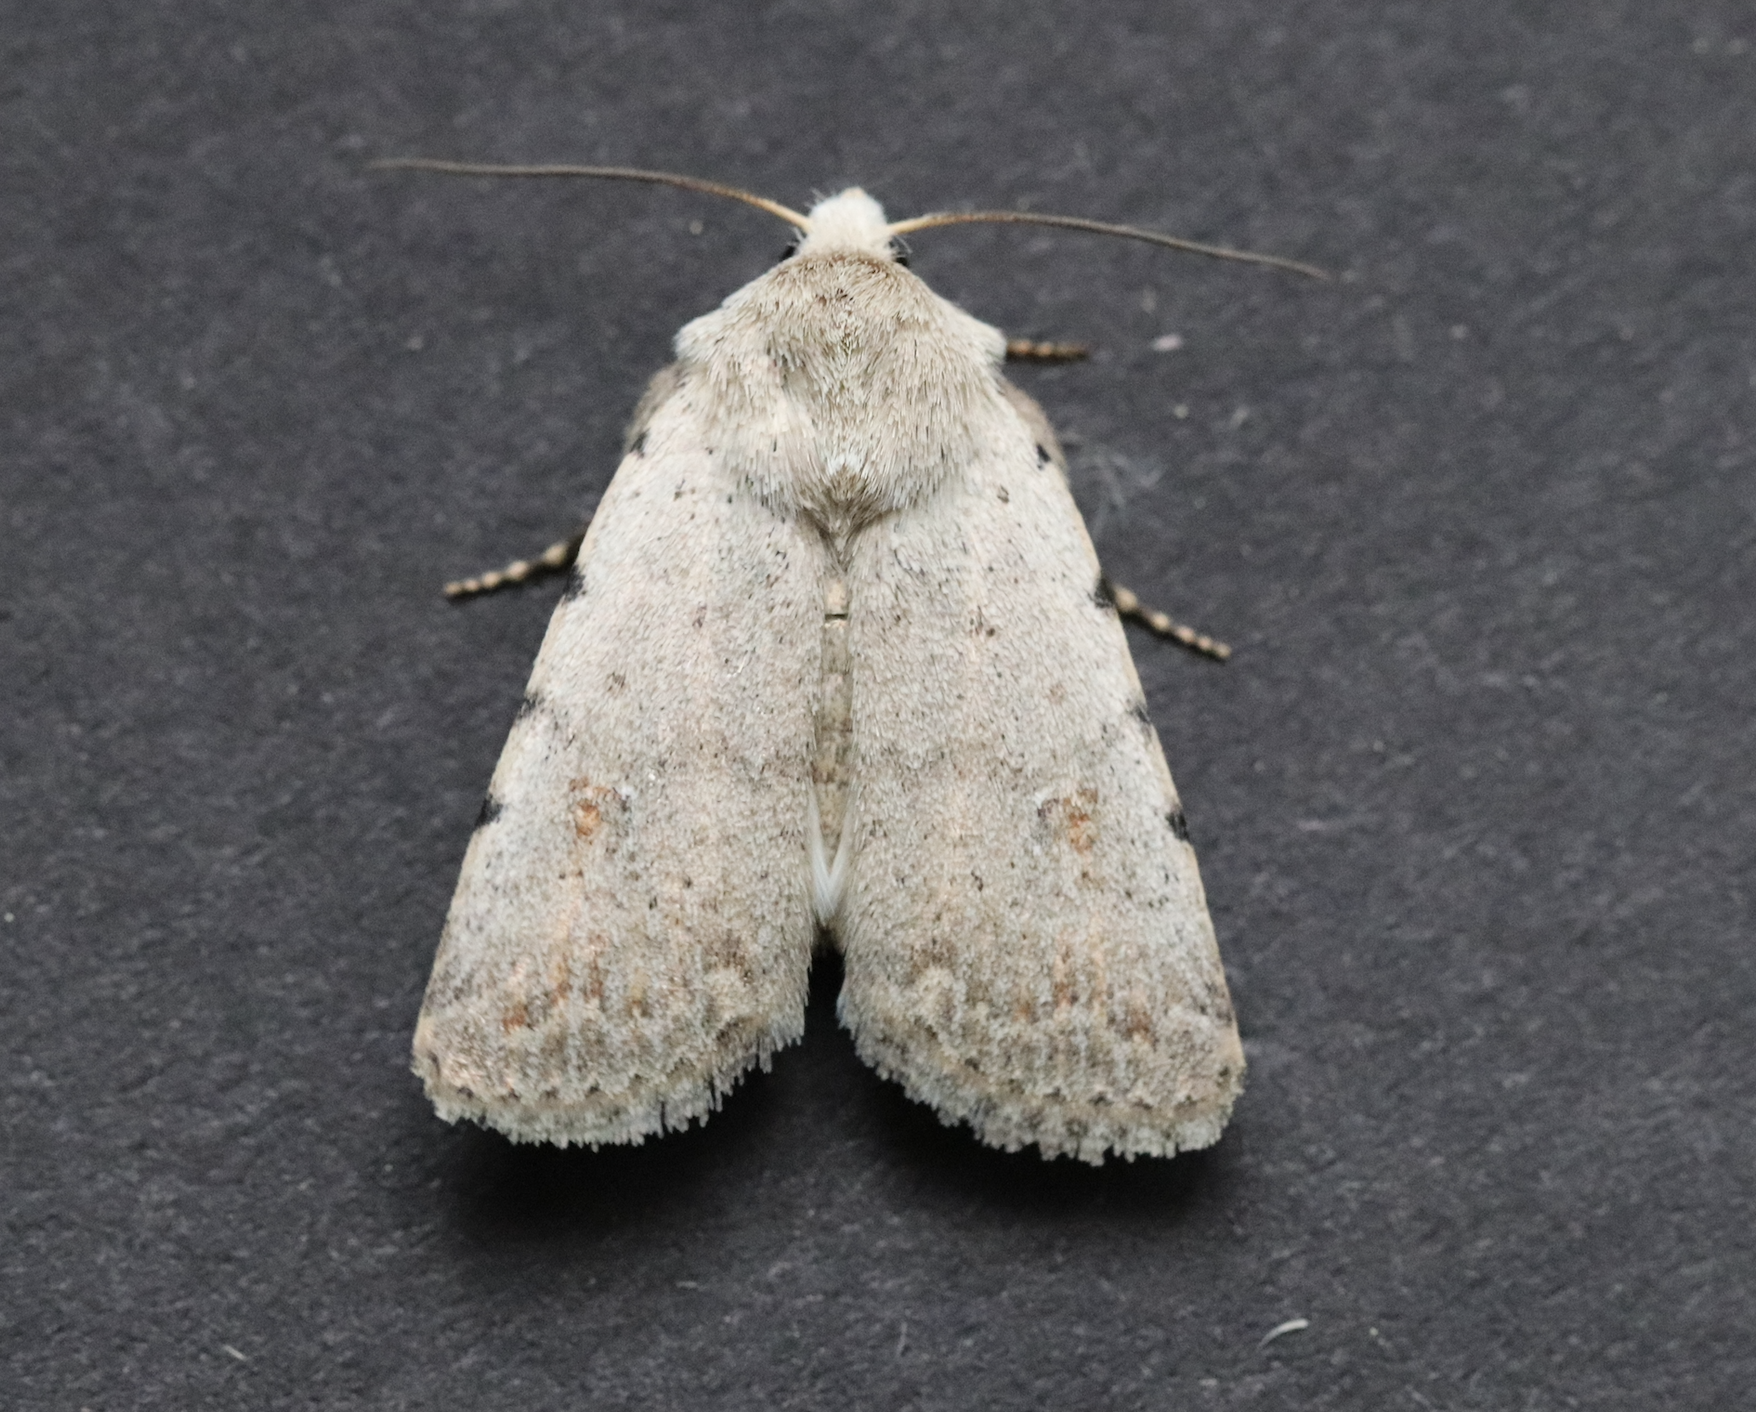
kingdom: Animalia
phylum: Arthropoda
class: Insecta
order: Lepidoptera
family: Noctuidae
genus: Caradrina
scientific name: Caradrina clavipalpis
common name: Pale mottled willow
